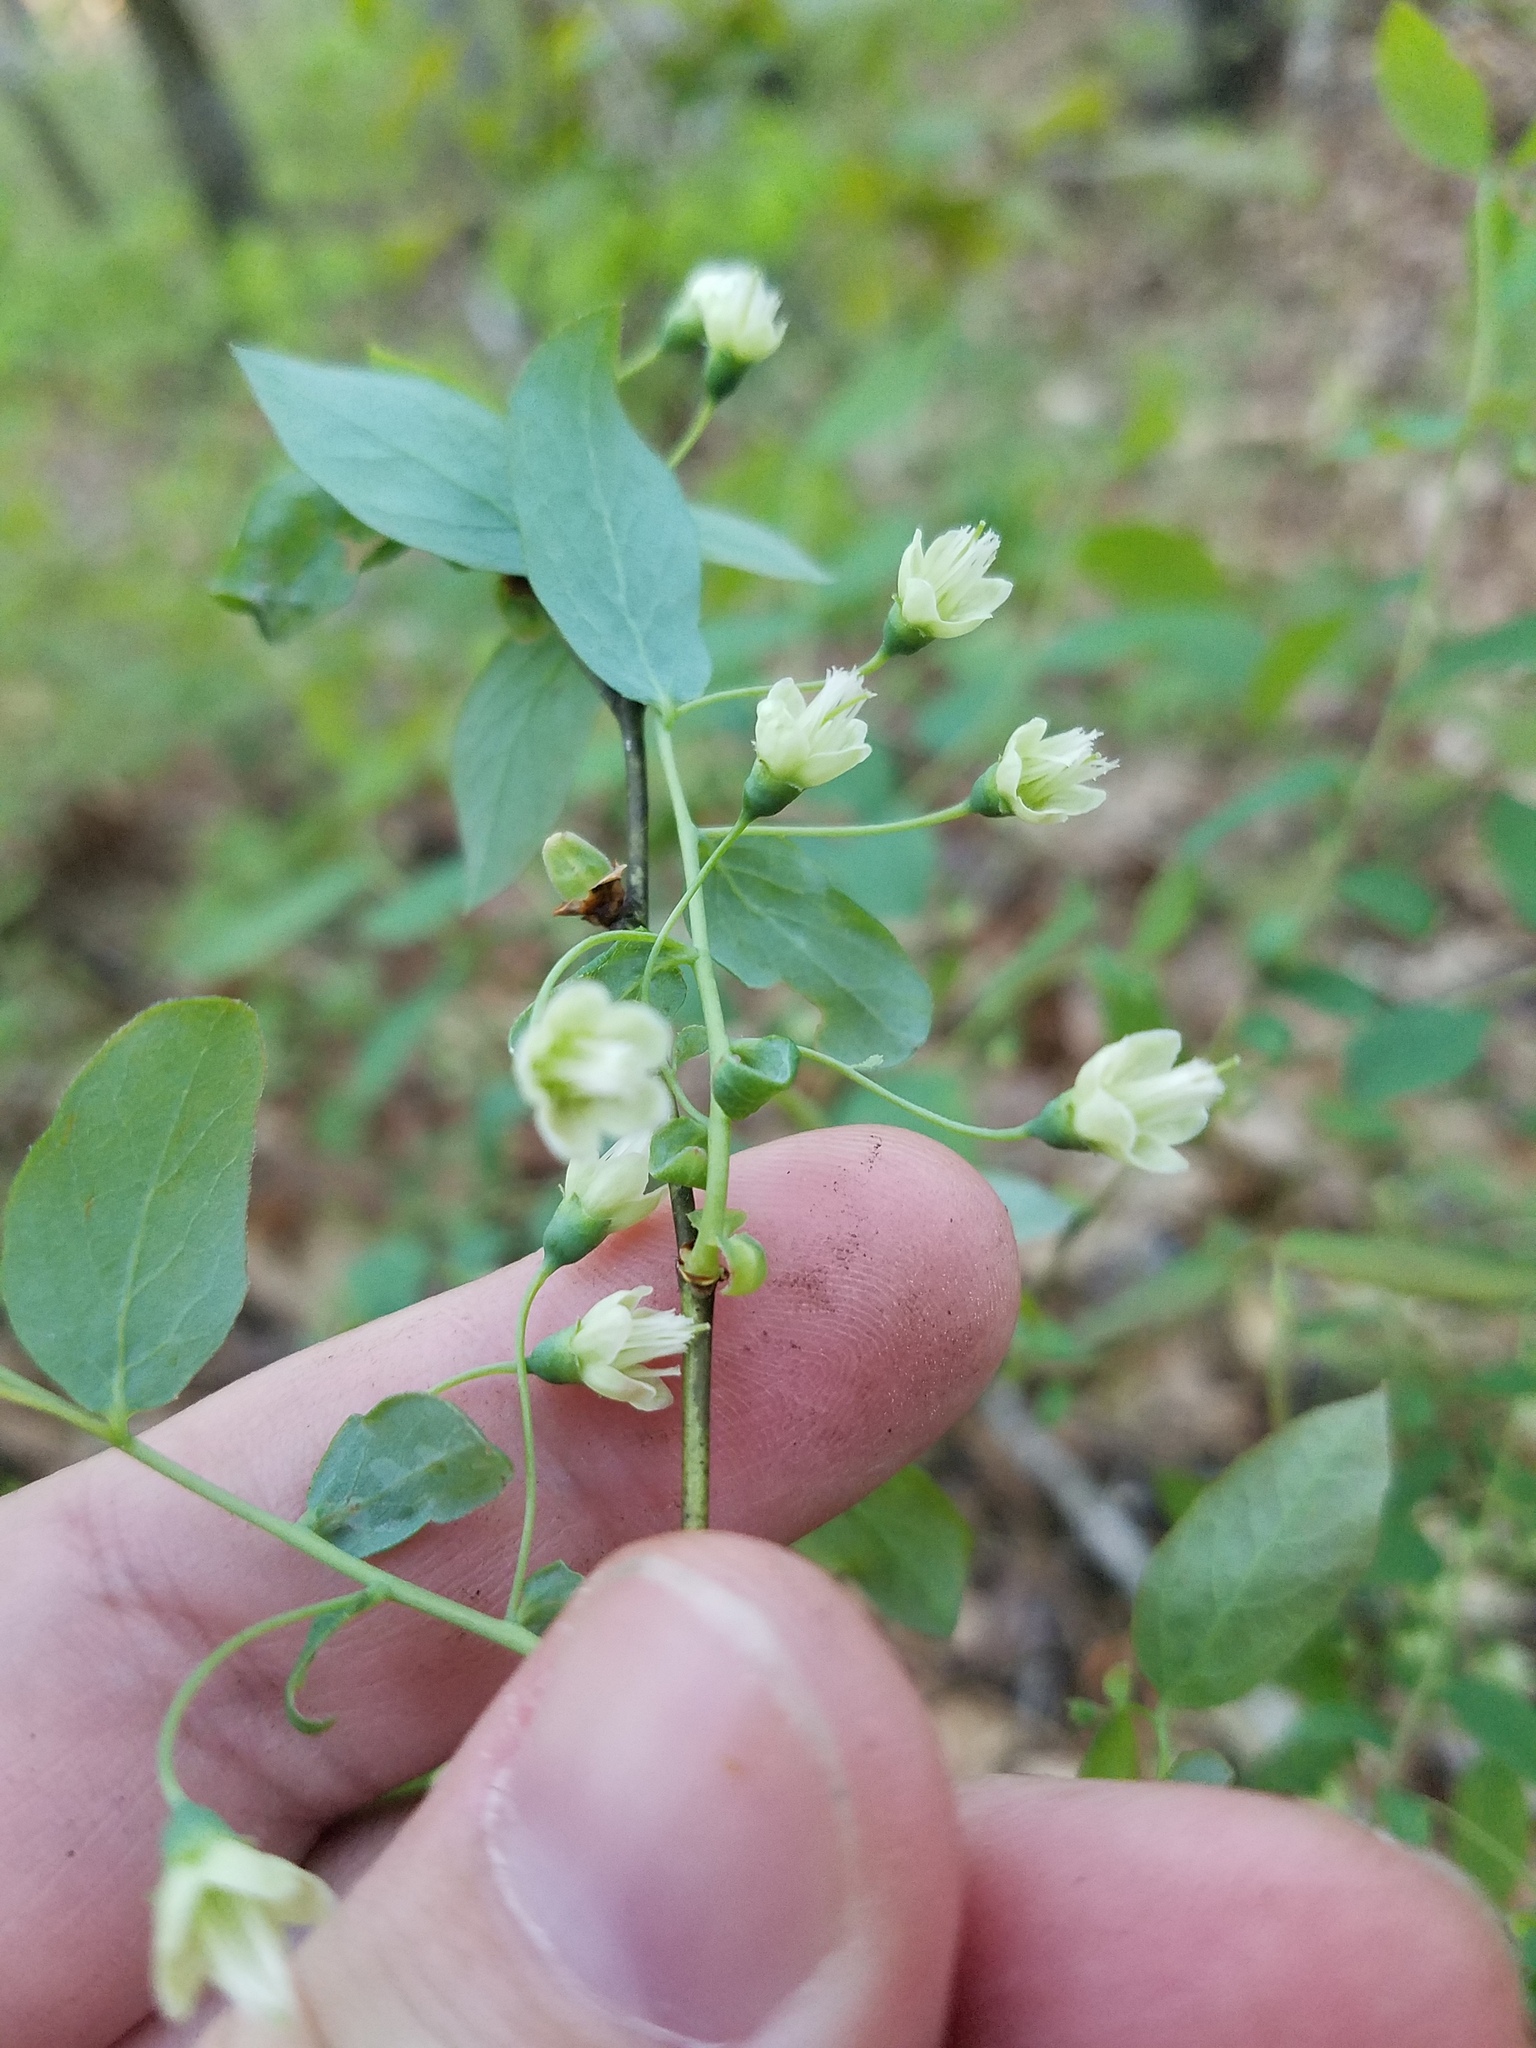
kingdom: Plantae
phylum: Tracheophyta
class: Magnoliopsida
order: Ericales
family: Ericaceae
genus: Vaccinium
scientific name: Vaccinium stamineum
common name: Deerberry
